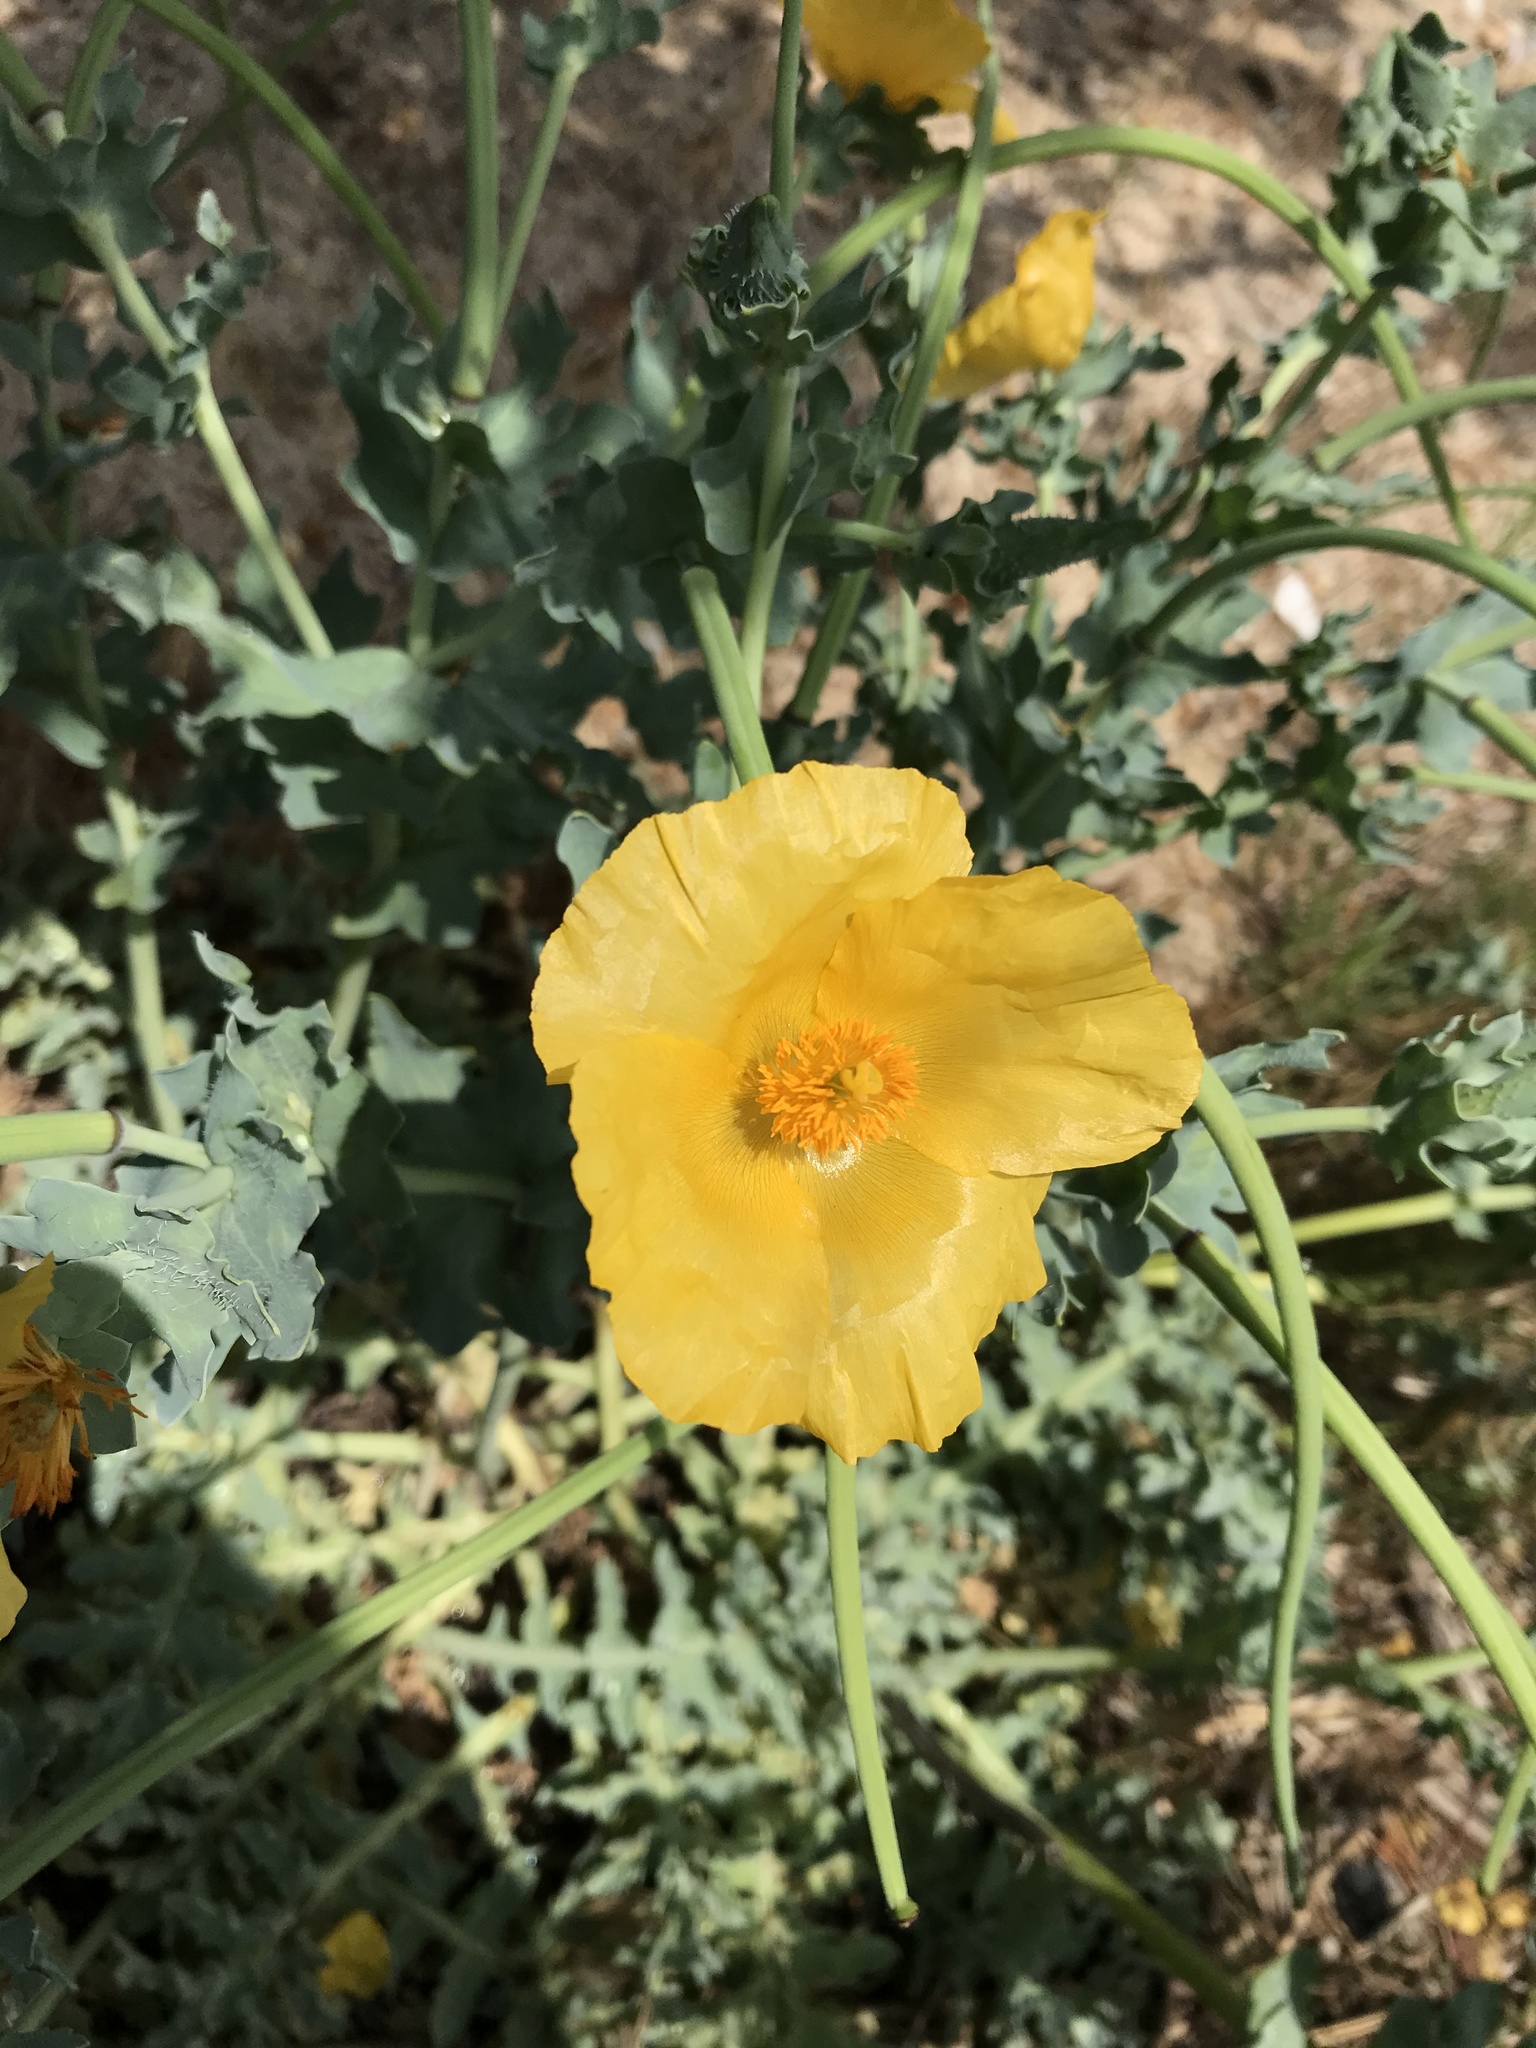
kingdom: Plantae
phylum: Tracheophyta
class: Magnoliopsida
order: Ranunculales
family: Papaveraceae
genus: Glaucium
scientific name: Glaucium flavum
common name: Yellow horned-poppy
